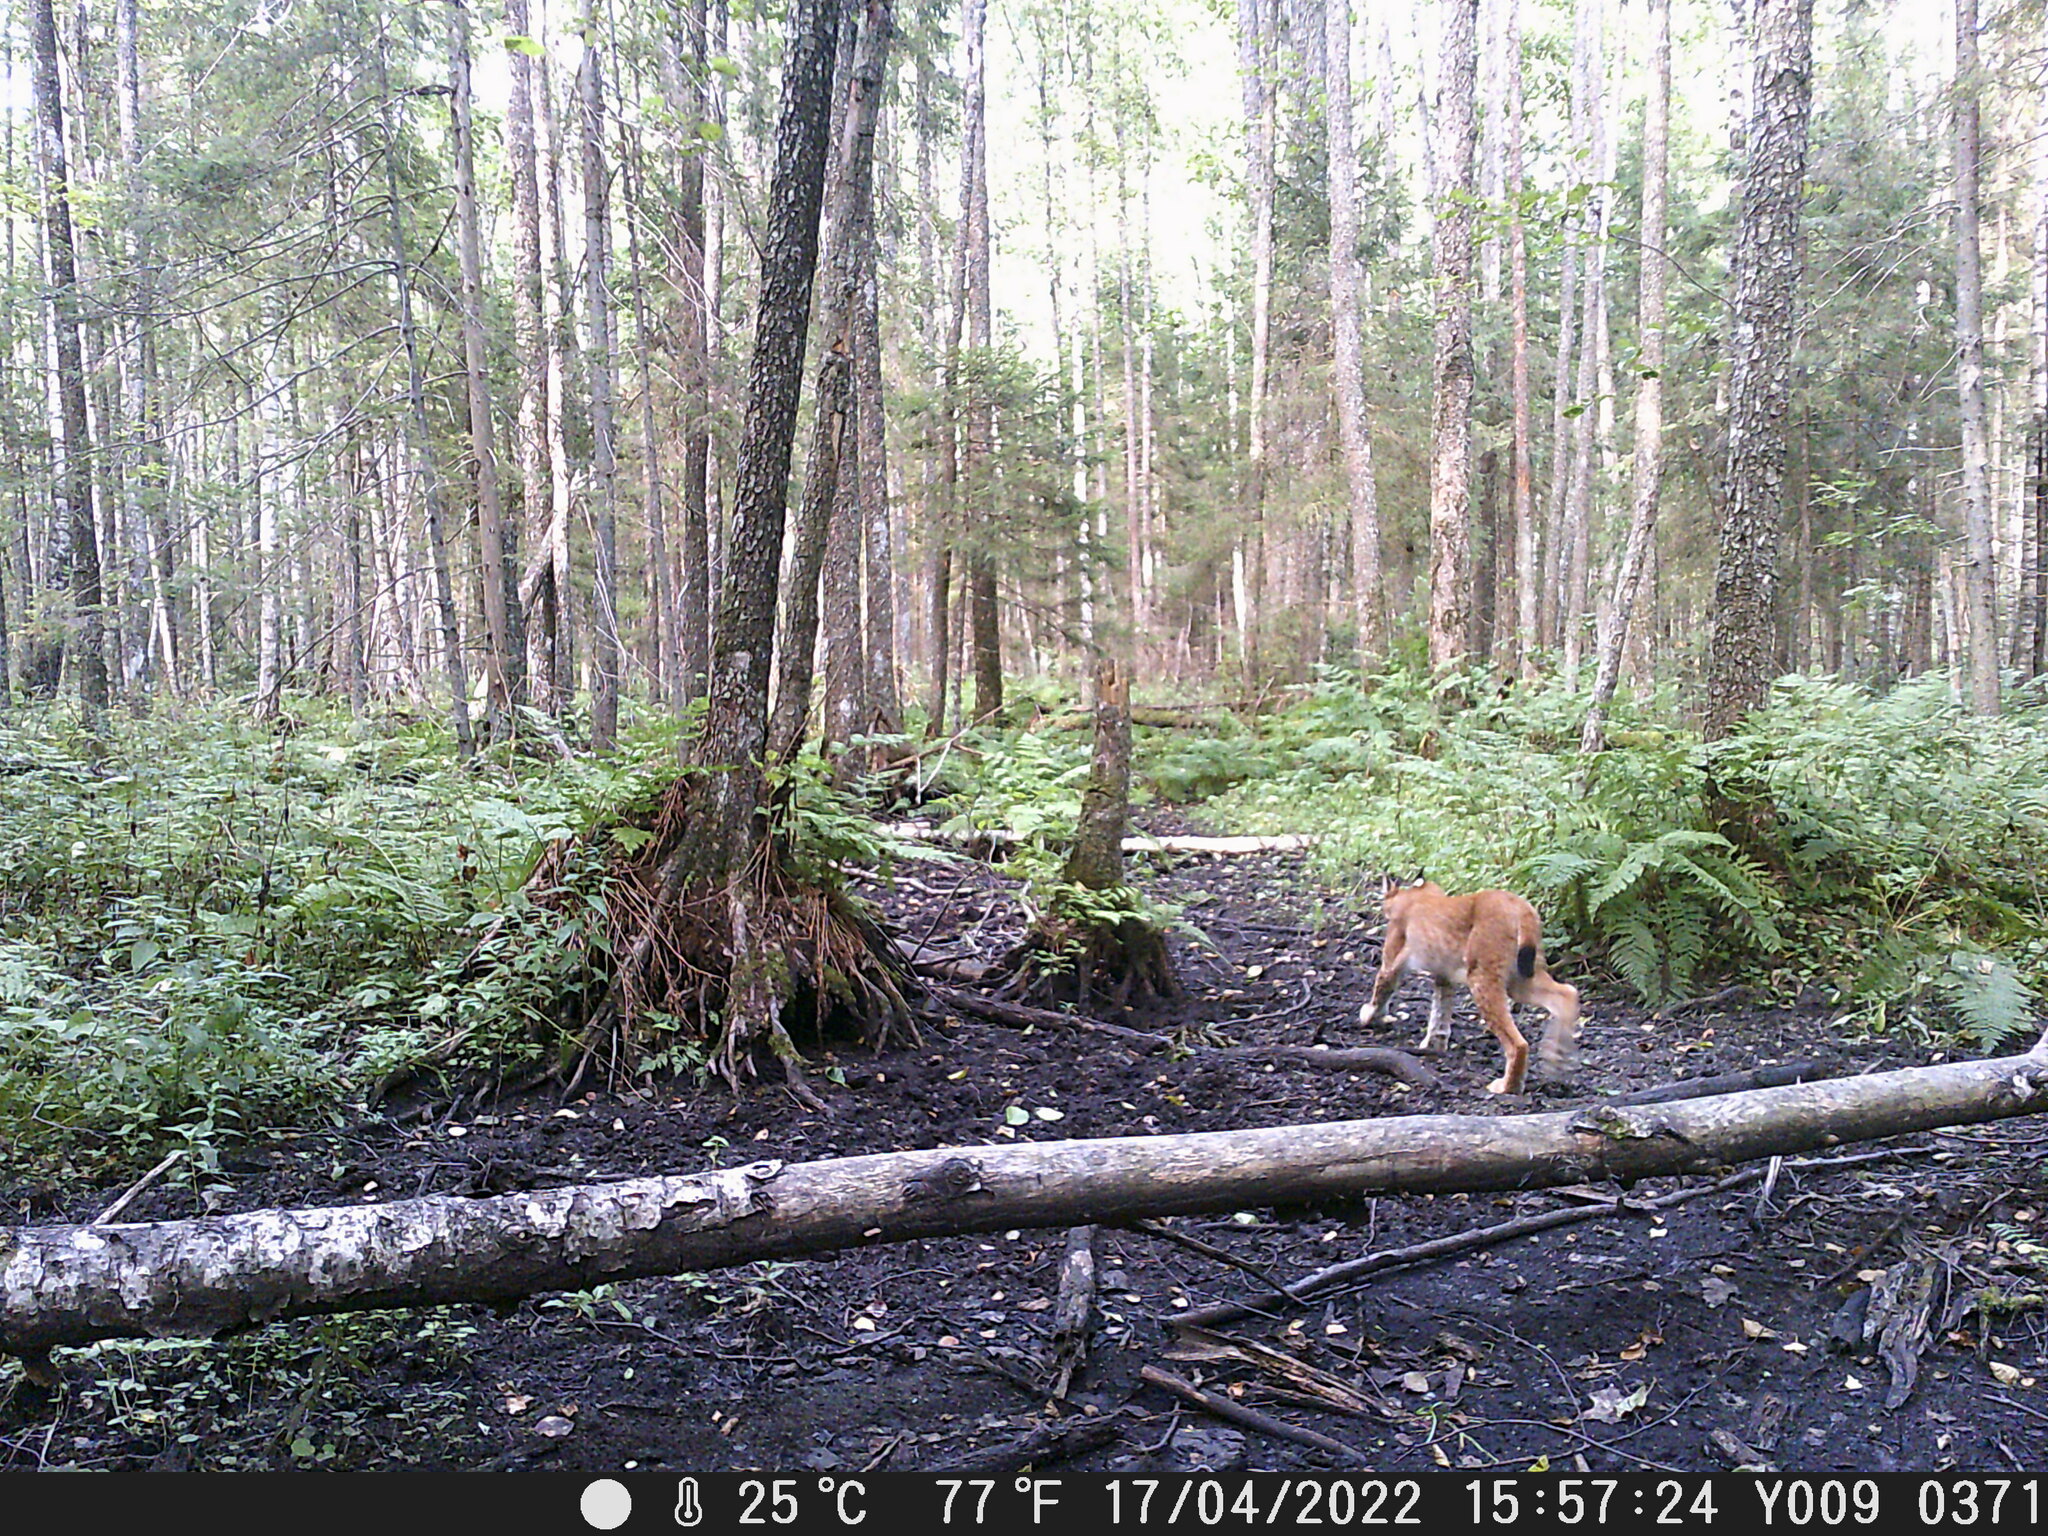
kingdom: Animalia
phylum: Chordata
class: Mammalia
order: Carnivora
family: Felidae
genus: Lynx
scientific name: Lynx lynx
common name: Eurasian lynx
